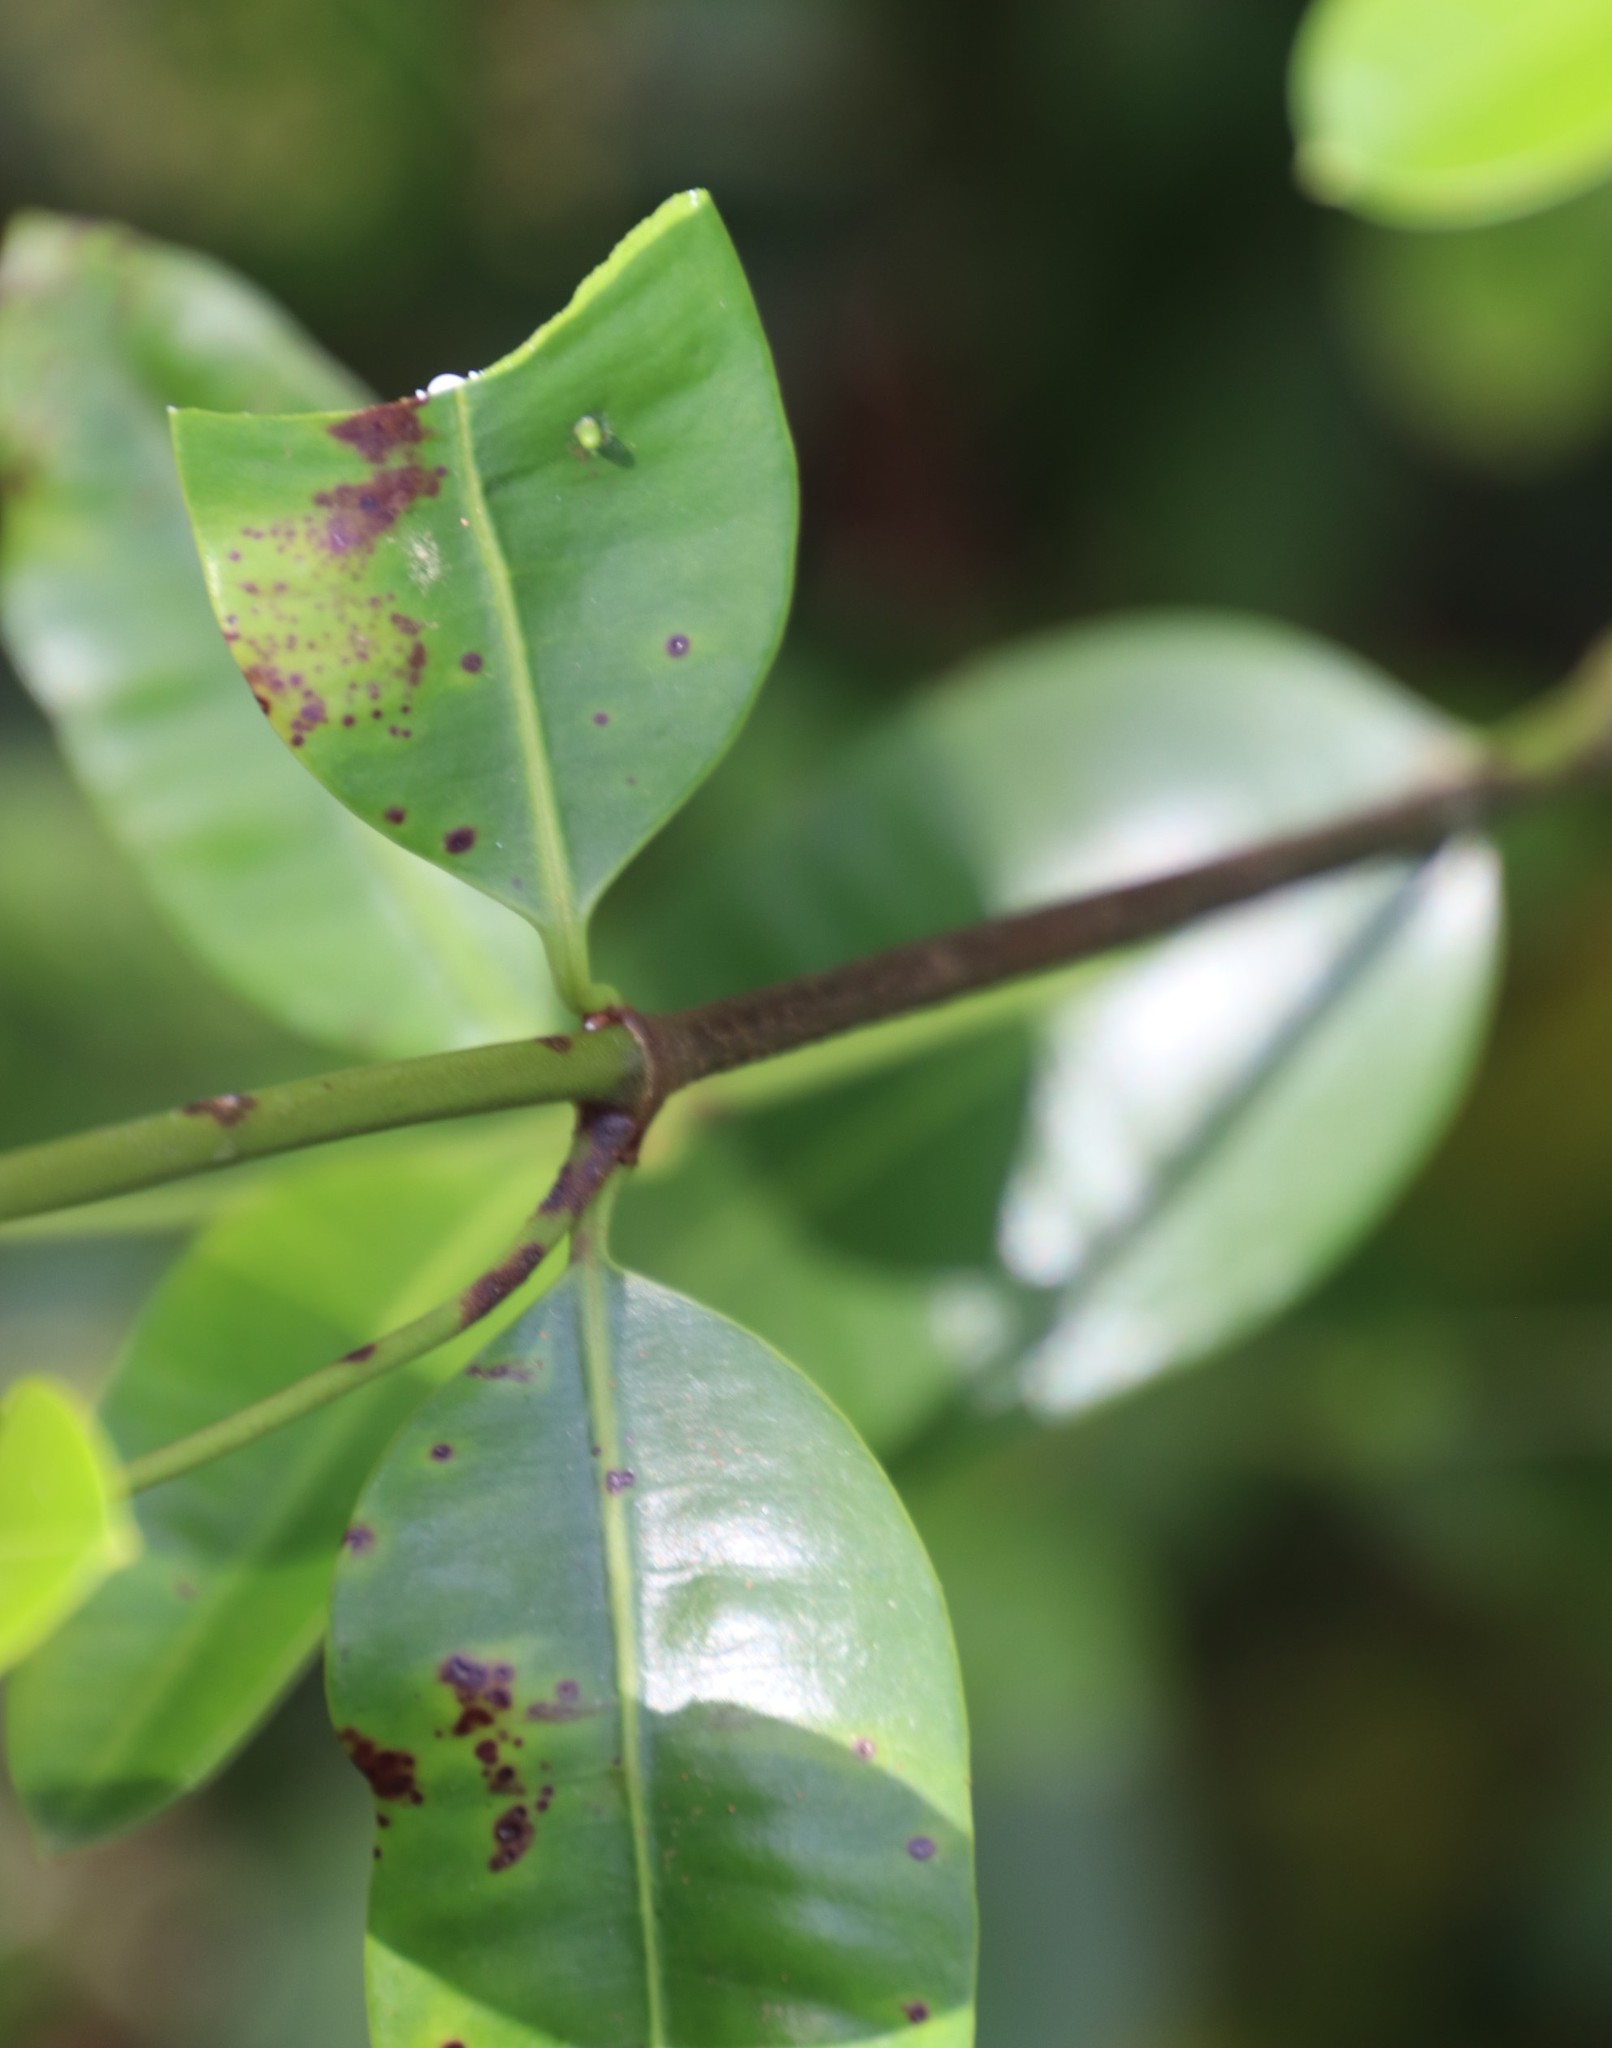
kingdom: Plantae
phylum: Tracheophyta
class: Magnoliopsida
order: Gentianales
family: Apocynaceae
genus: Secamone
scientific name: Secamone alpini
